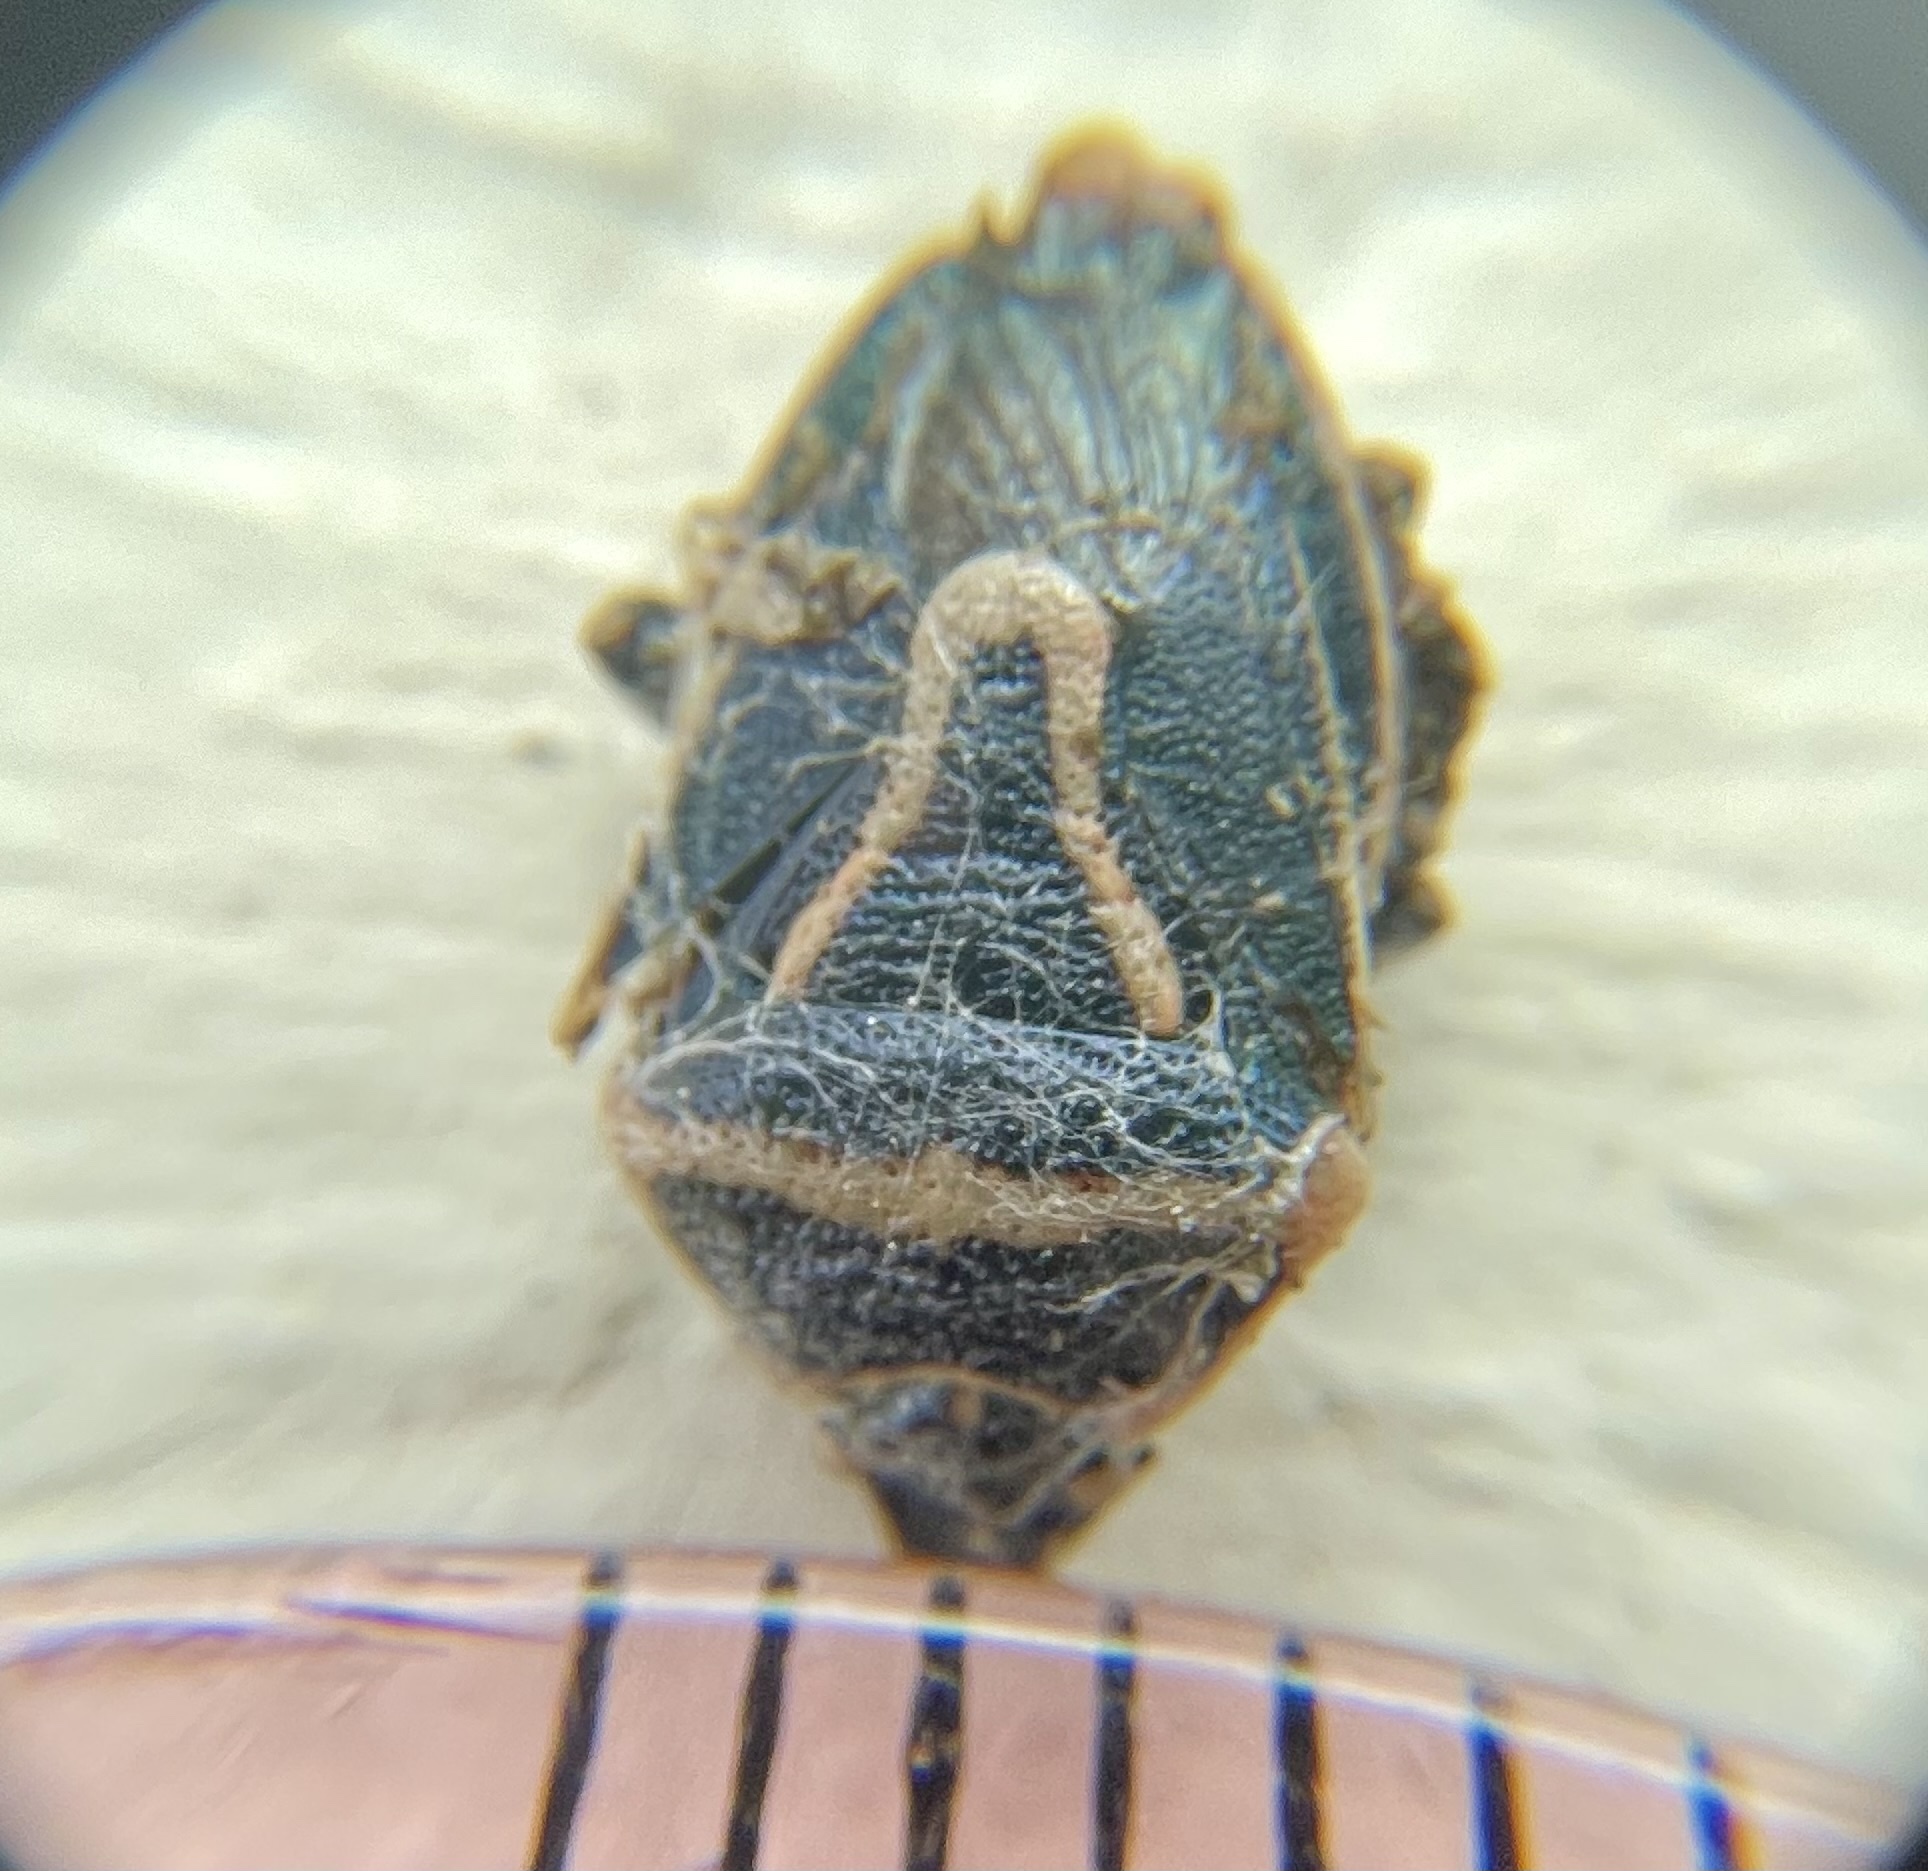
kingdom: Animalia
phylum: Arthropoda
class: Insecta
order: Hemiptera
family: Pentatomidae
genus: Perillus
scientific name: Perillus splendidus
